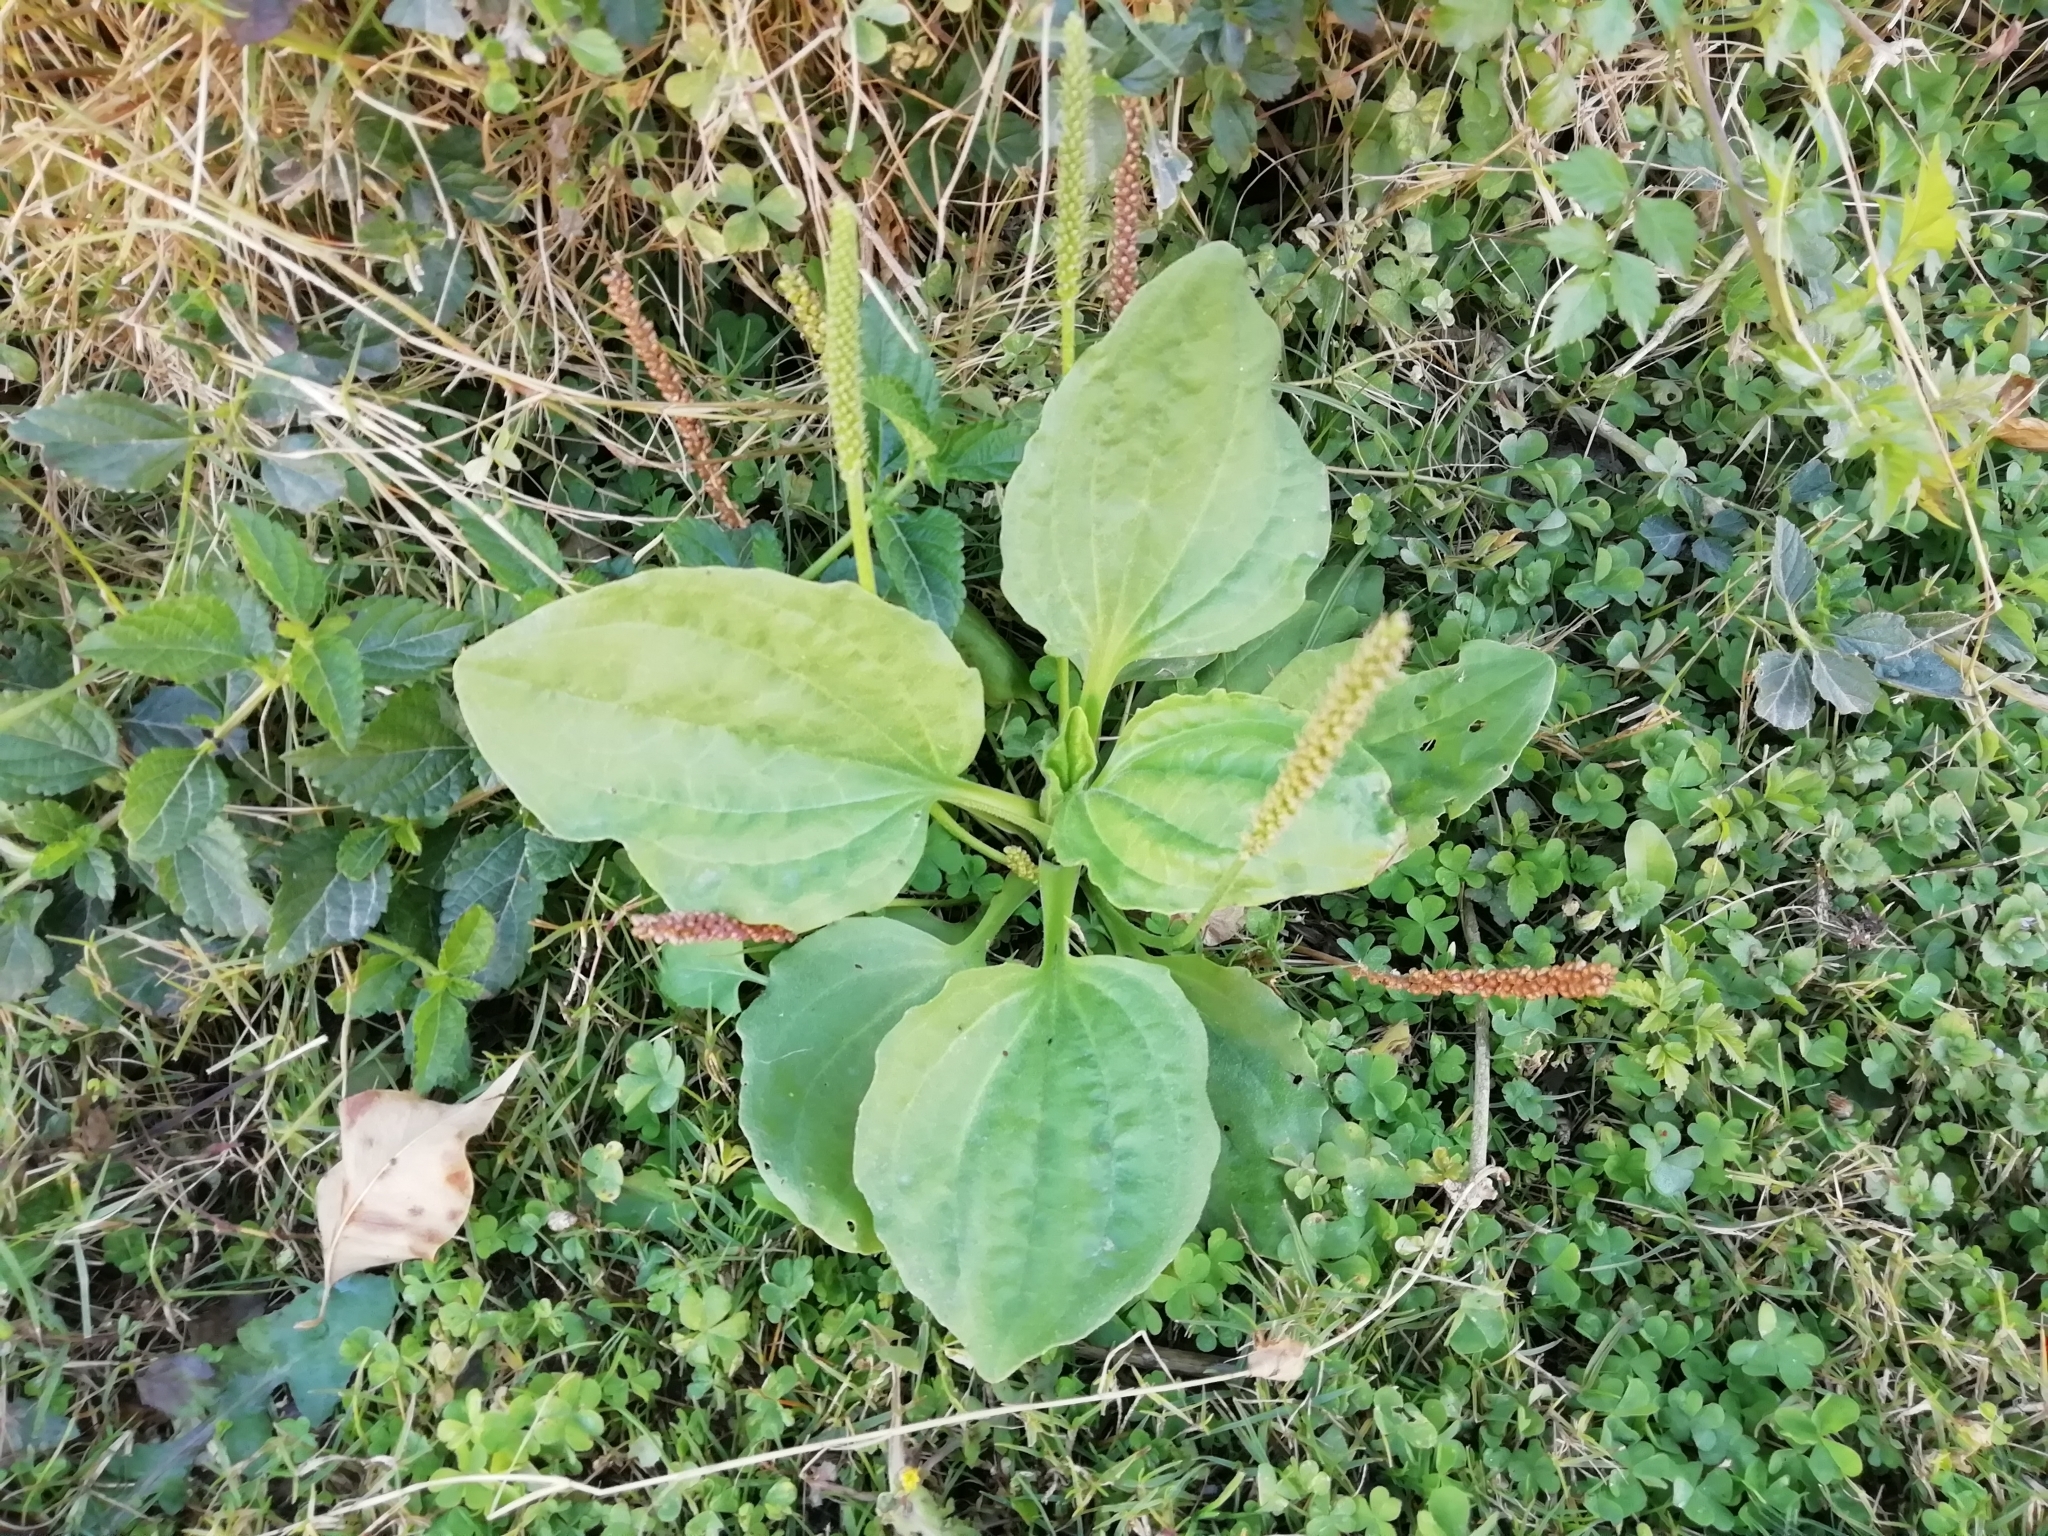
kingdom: Plantae
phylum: Tracheophyta
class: Magnoliopsida
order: Lamiales
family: Plantaginaceae
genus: Plantago
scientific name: Plantago major
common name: Common plantain
